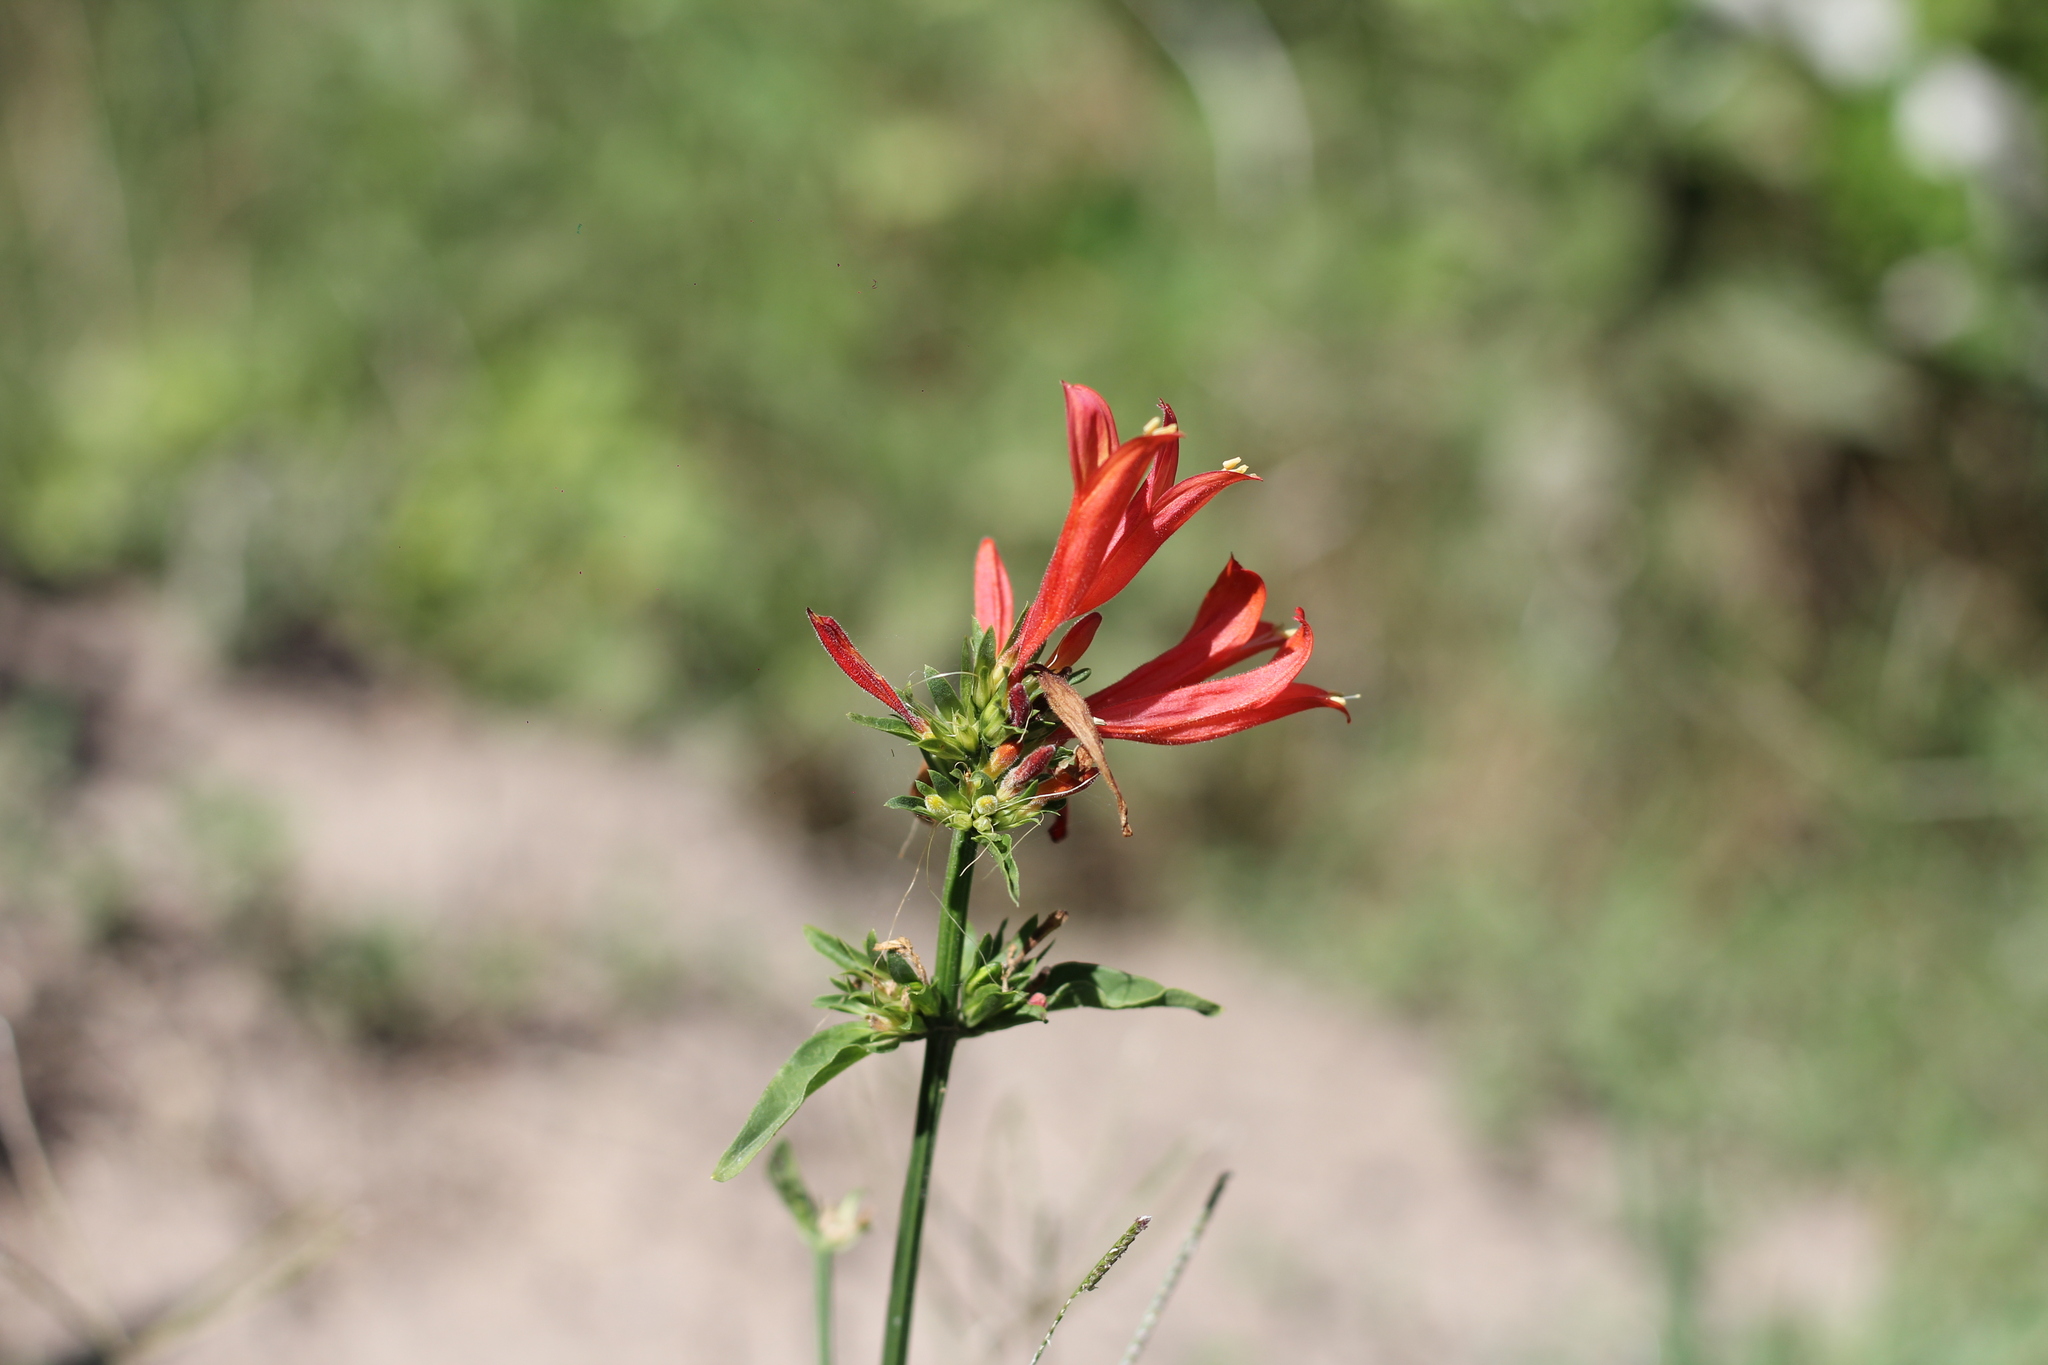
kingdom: Plantae
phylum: Tracheophyta
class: Magnoliopsida
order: Lamiales
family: Acanthaceae
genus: Dicliptera
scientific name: Dicliptera squarrosa
